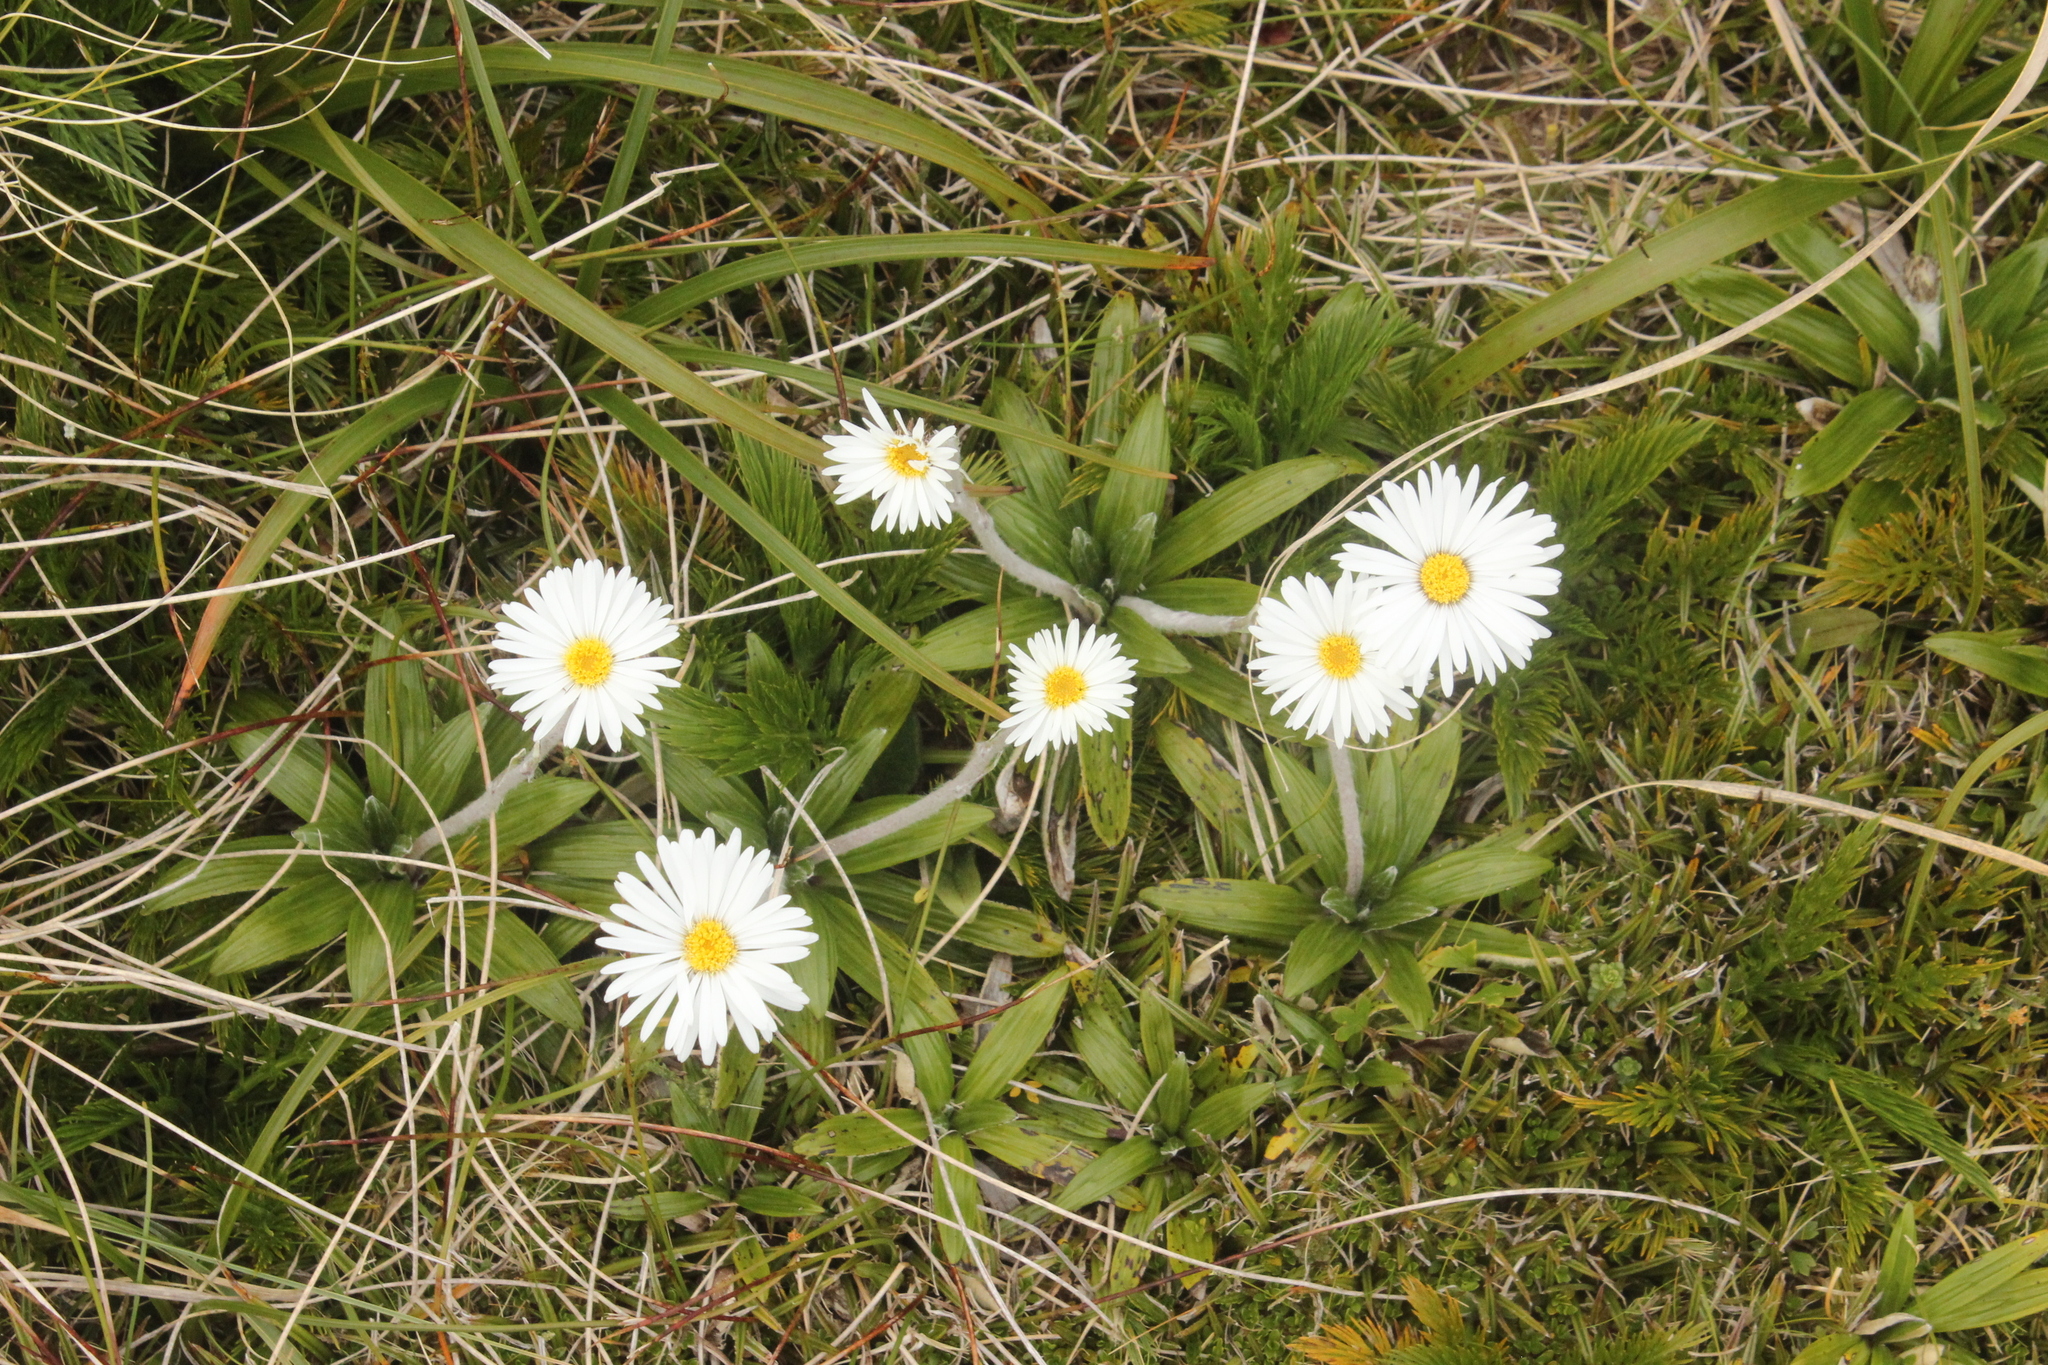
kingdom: Plantae
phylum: Tracheophyta
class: Magnoliopsida
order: Asterales
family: Asteraceae
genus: Celmisia
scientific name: Celmisia spectabilis
